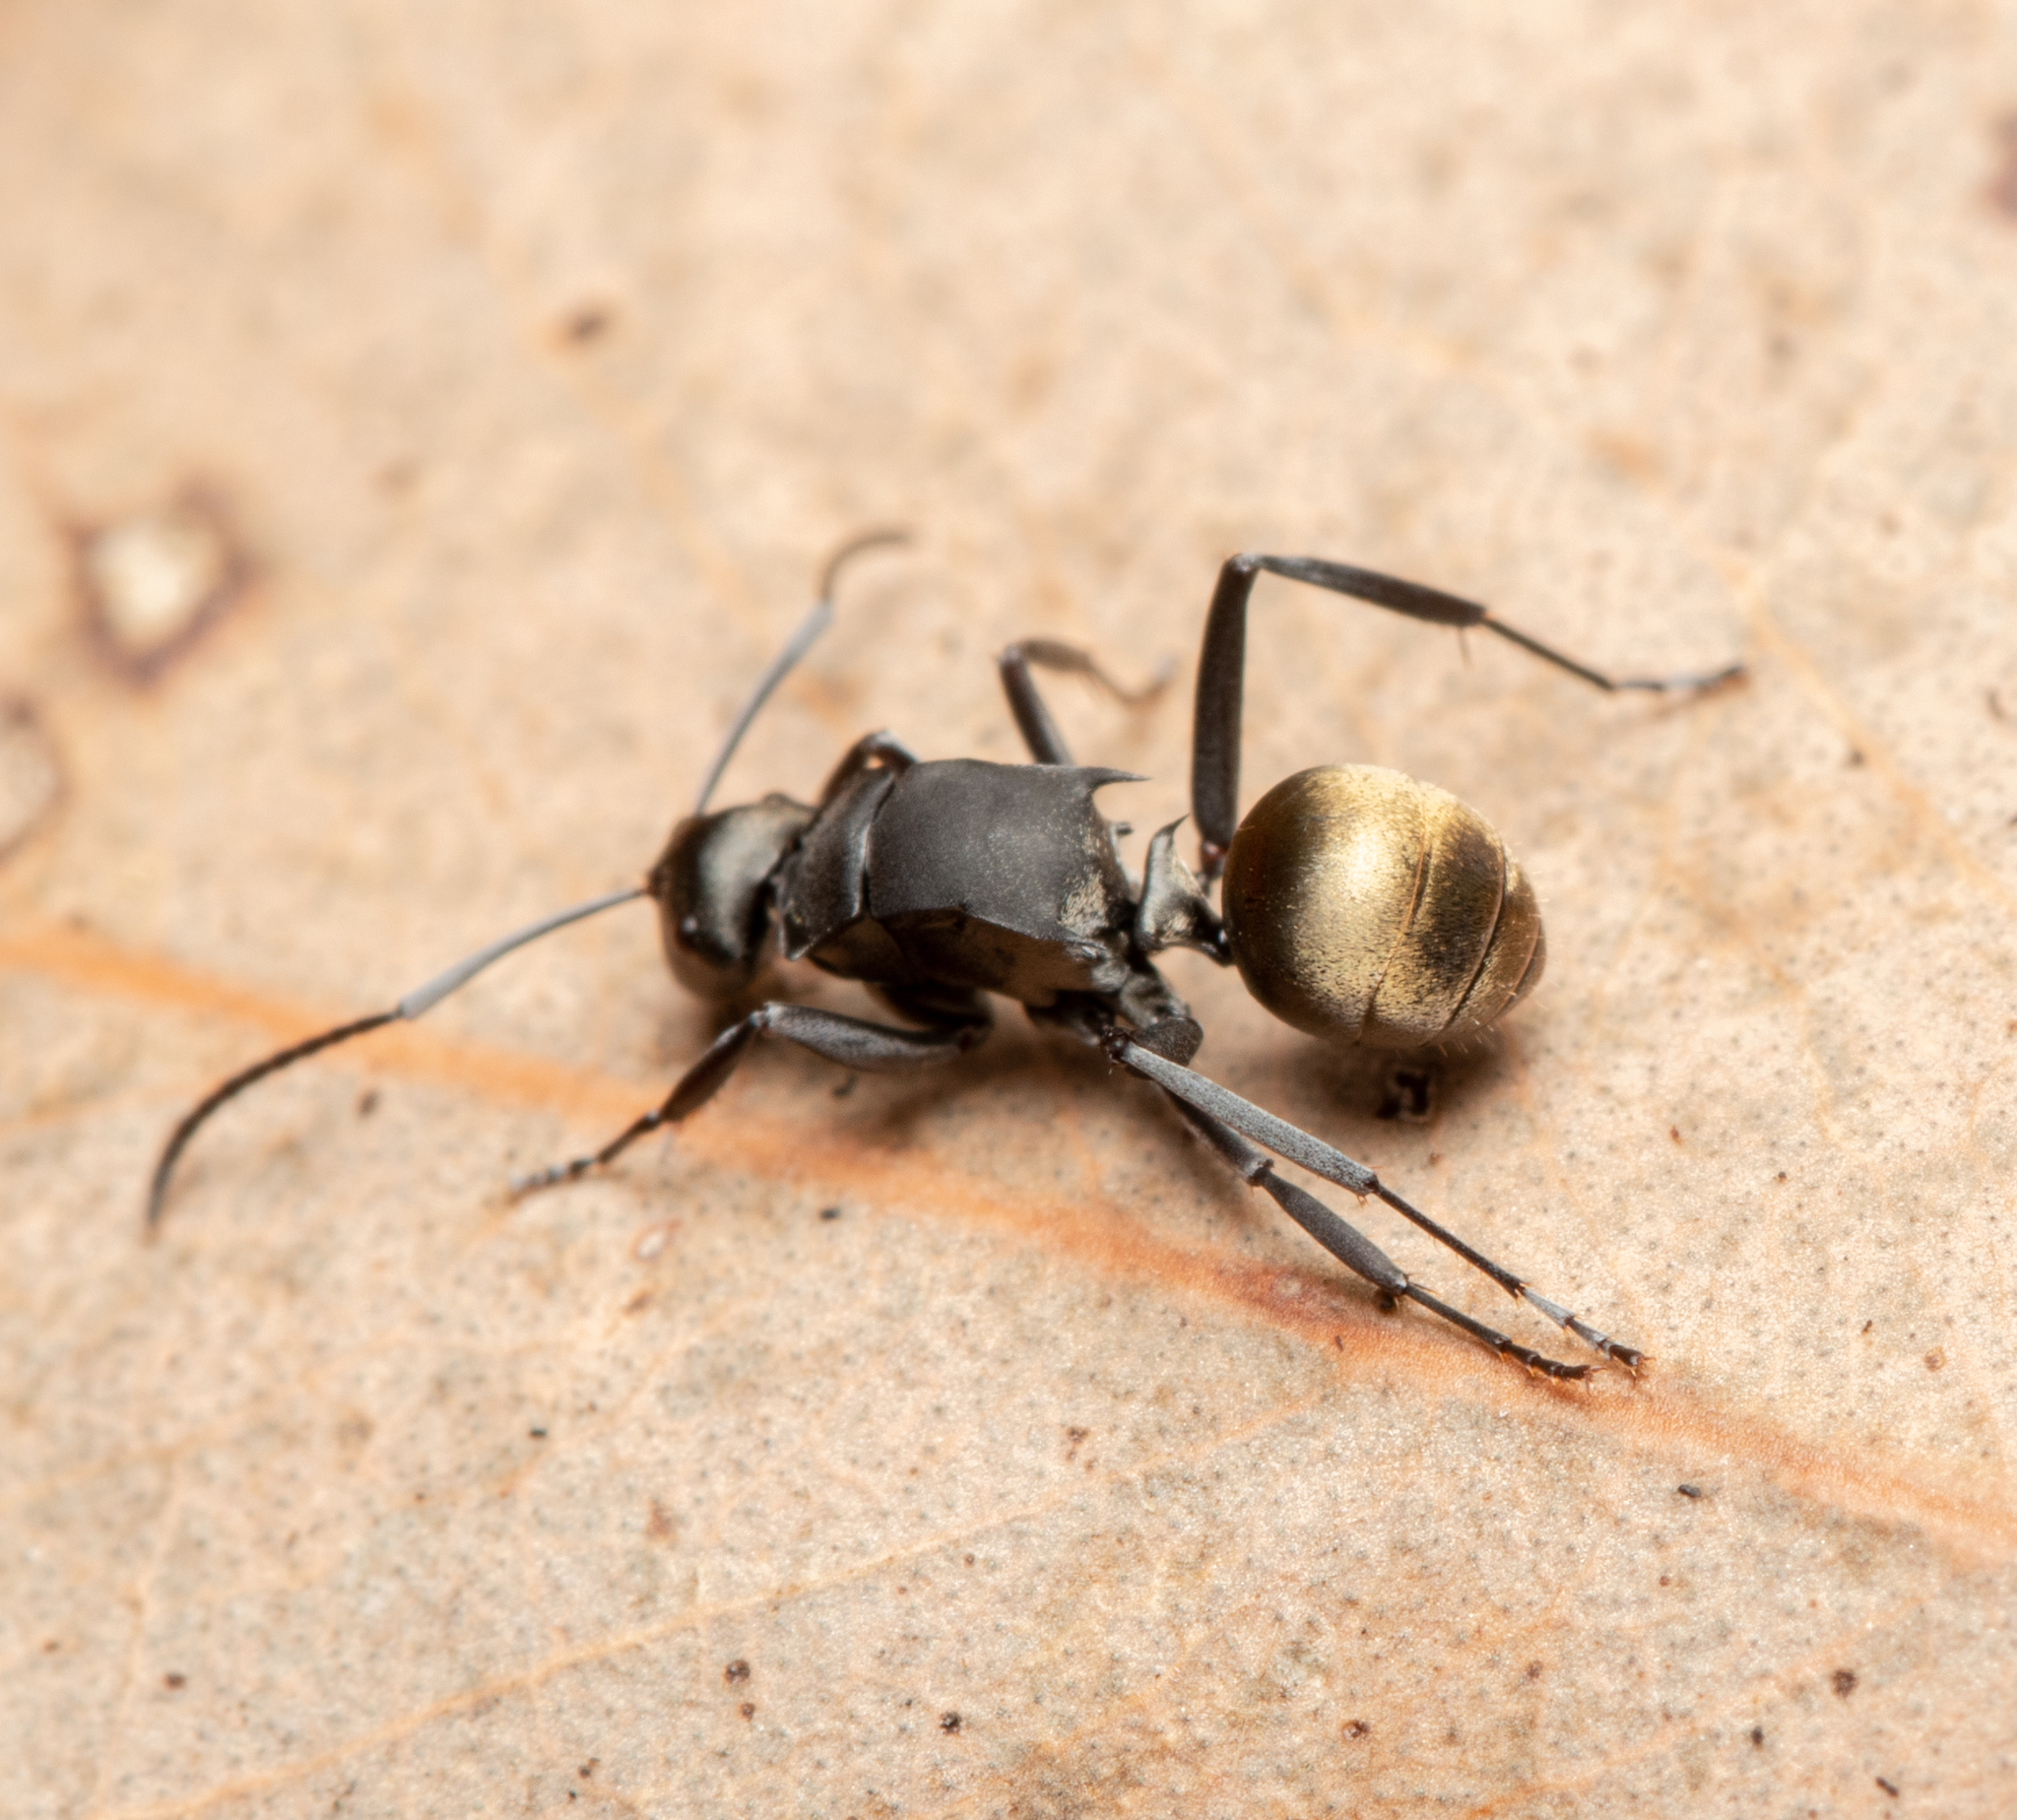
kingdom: Animalia
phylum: Arthropoda
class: Insecta
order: Hymenoptera
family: Formicidae
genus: Polyrhachis
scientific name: Polyrhachis tubifera
